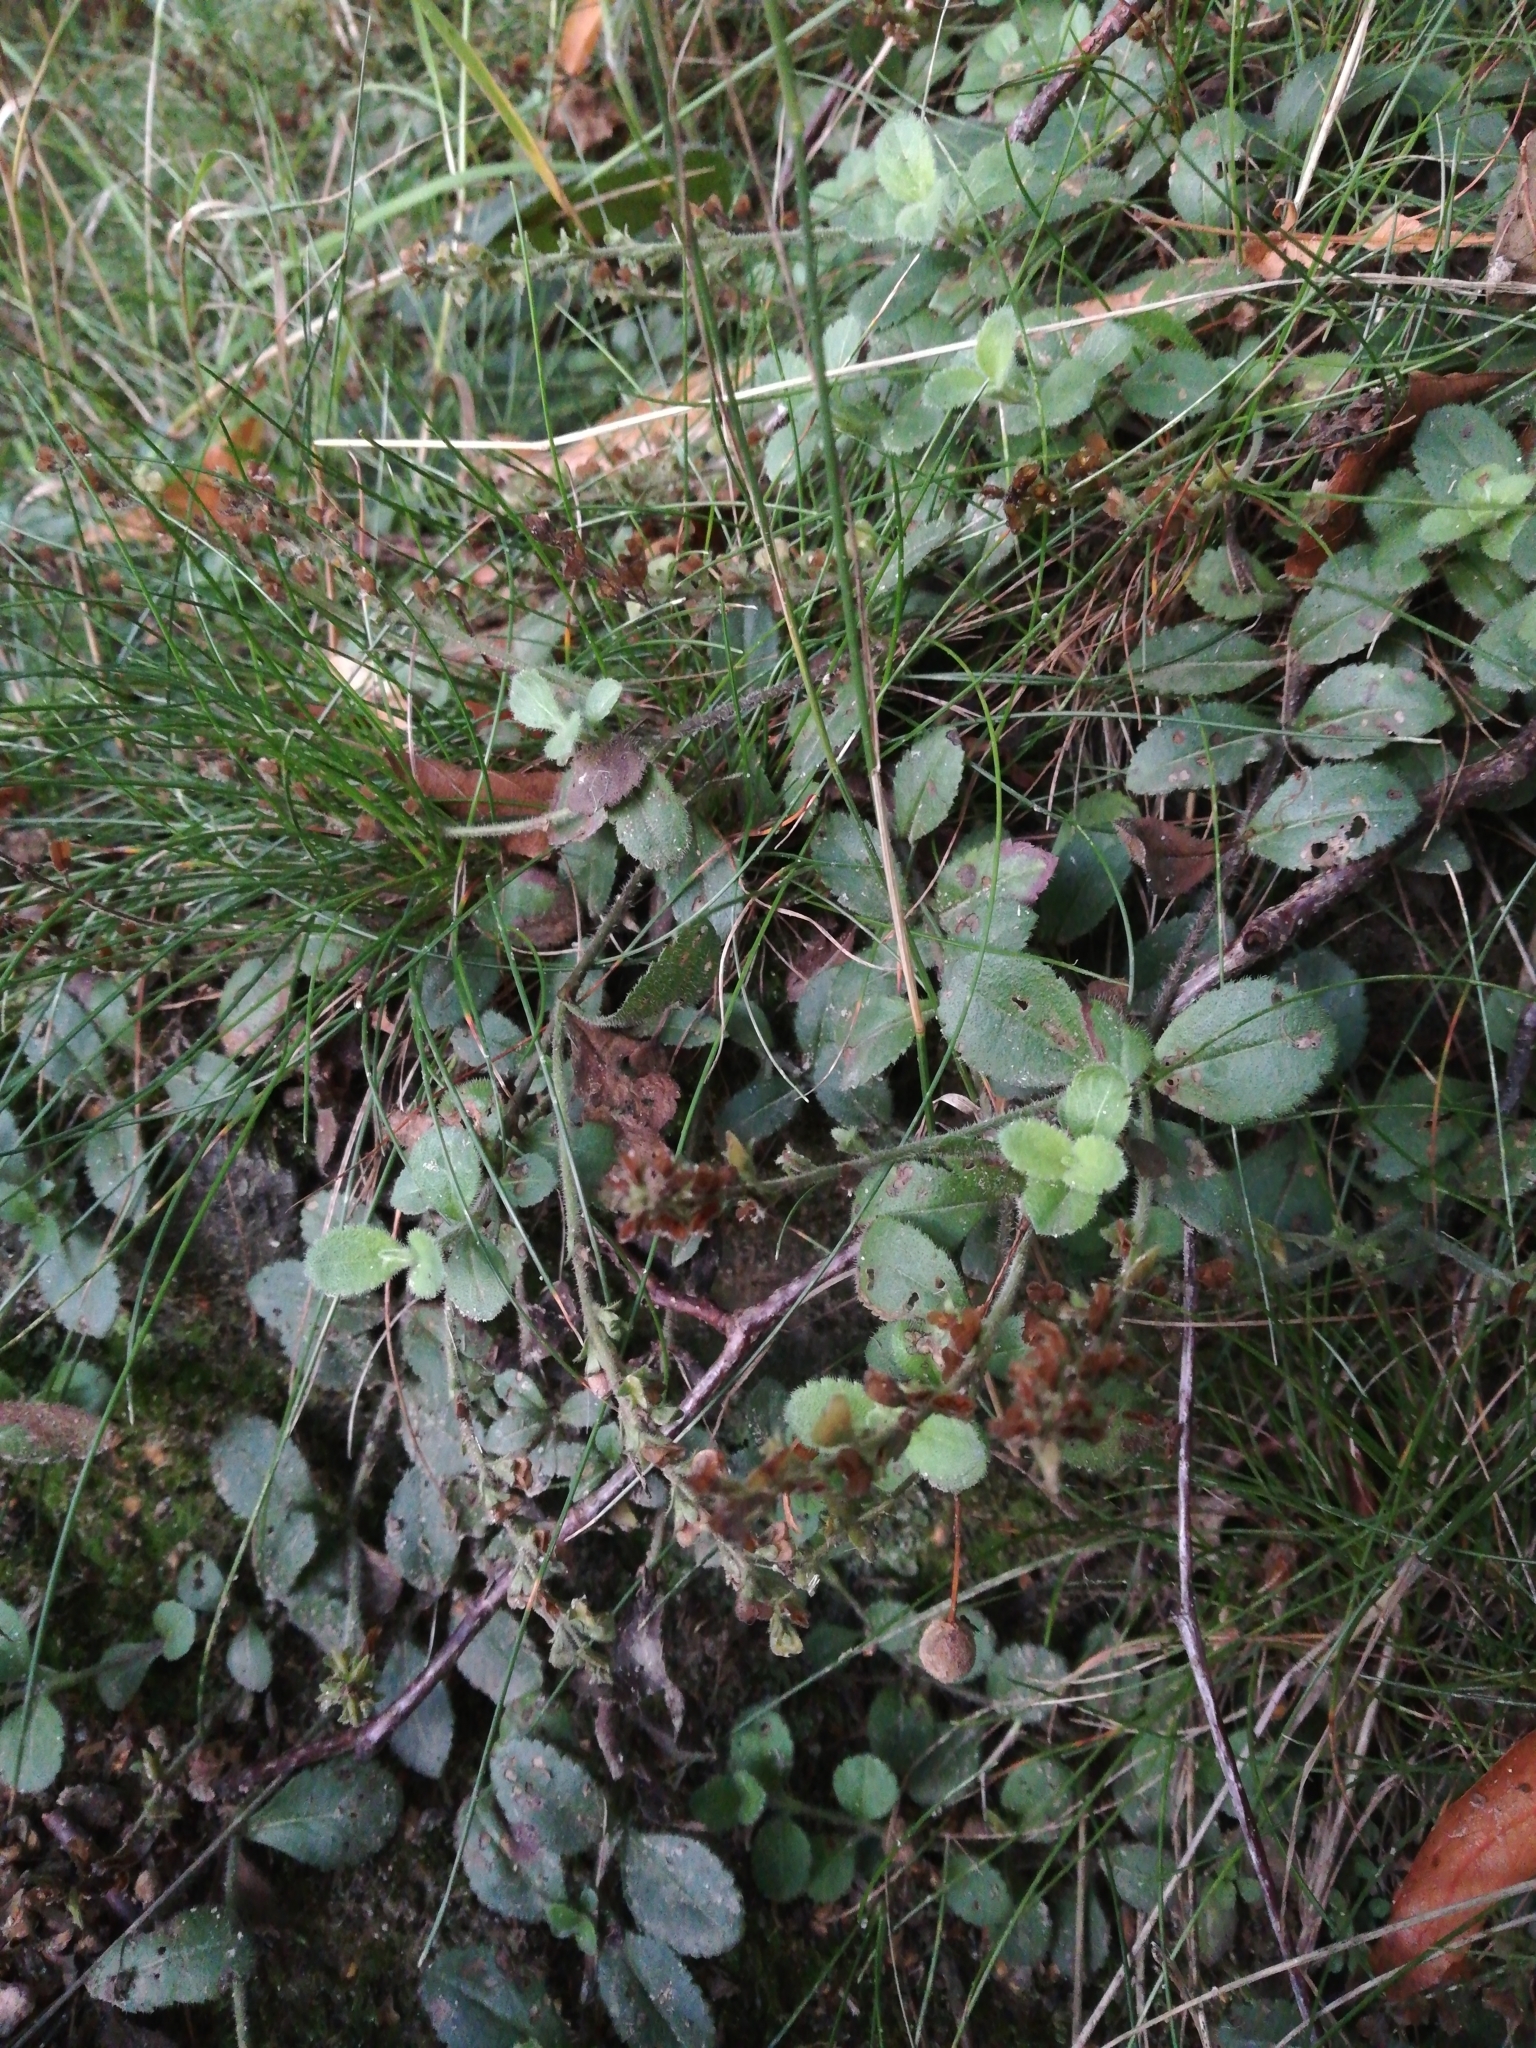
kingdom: Plantae
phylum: Tracheophyta
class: Magnoliopsida
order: Lamiales
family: Plantaginaceae
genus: Veronica
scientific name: Veronica officinalis
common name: Common speedwell
